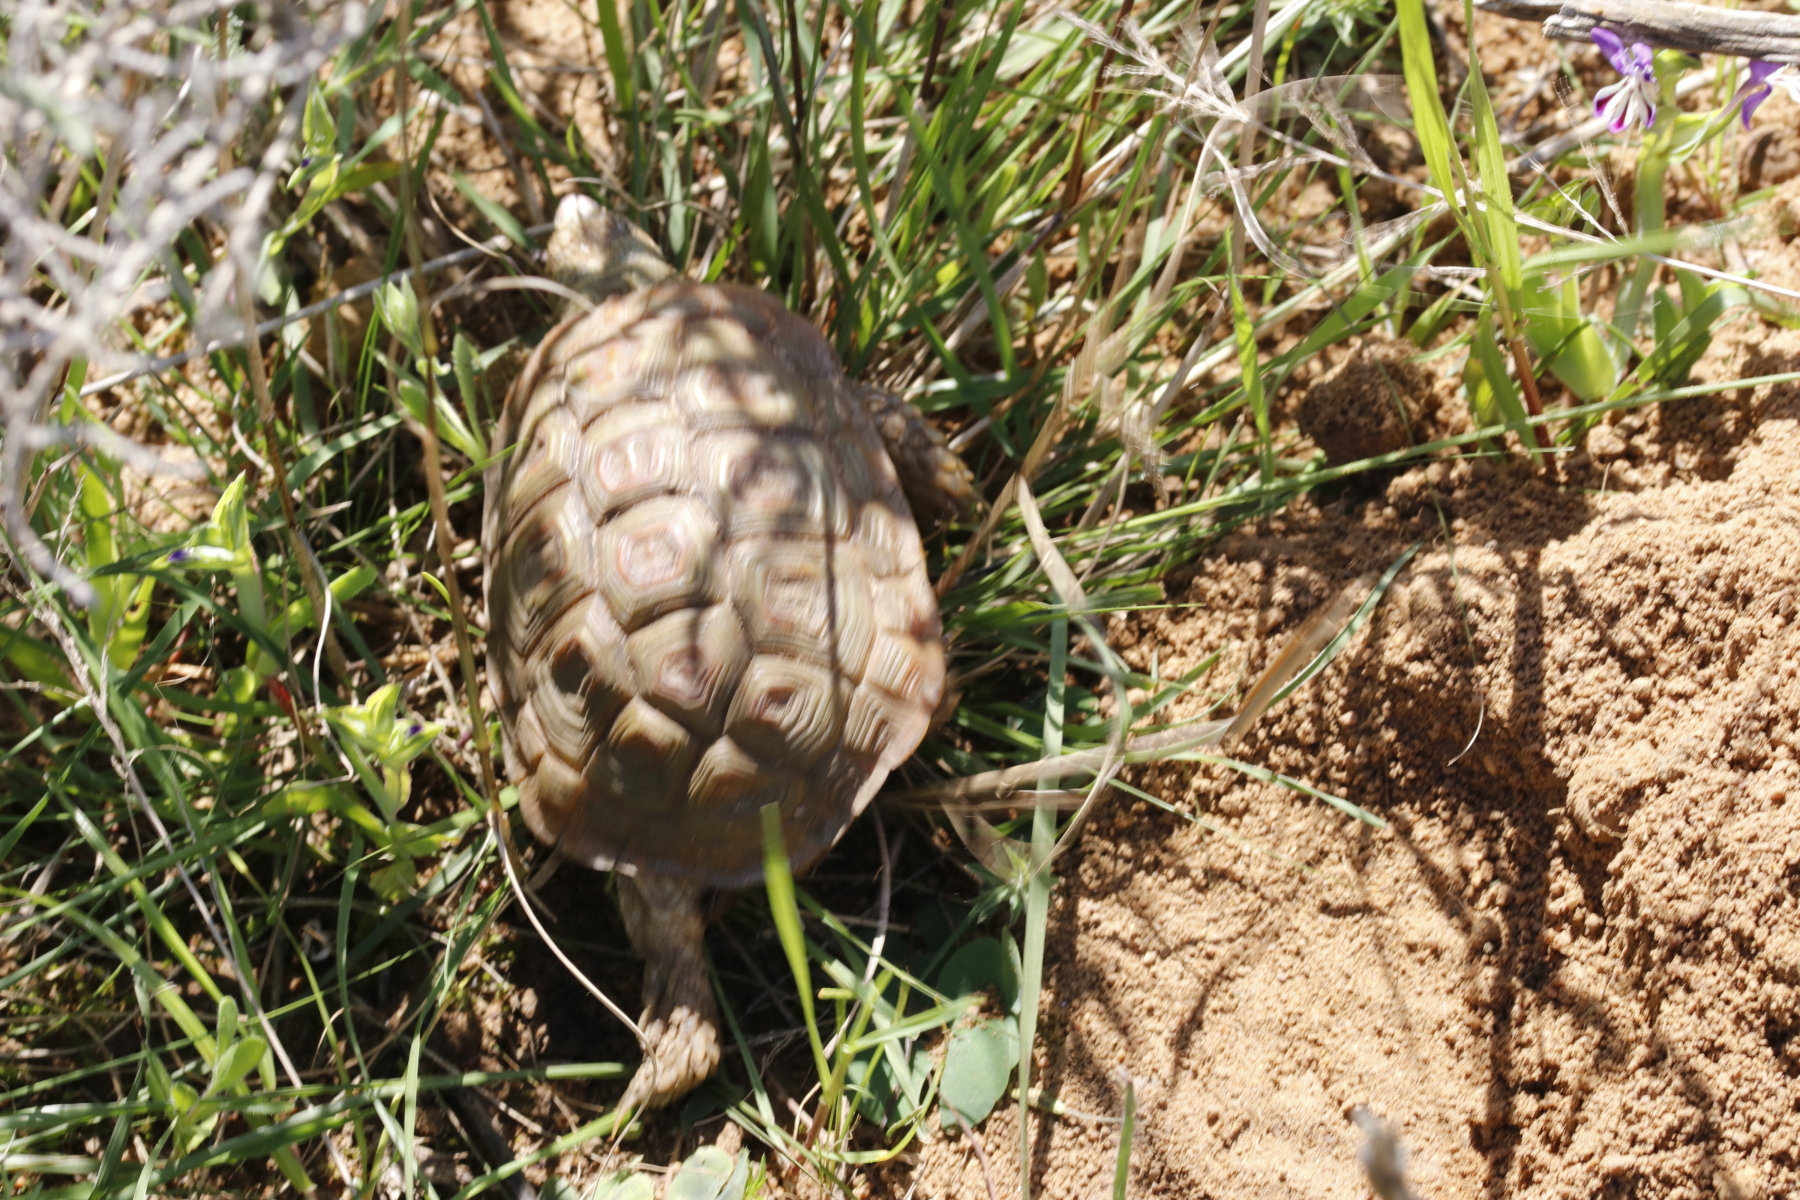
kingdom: Animalia
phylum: Chordata
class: Testudines
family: Testudinidae
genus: Homopus
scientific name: Homopus areolatus
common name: Parrot-beaked tortoise
